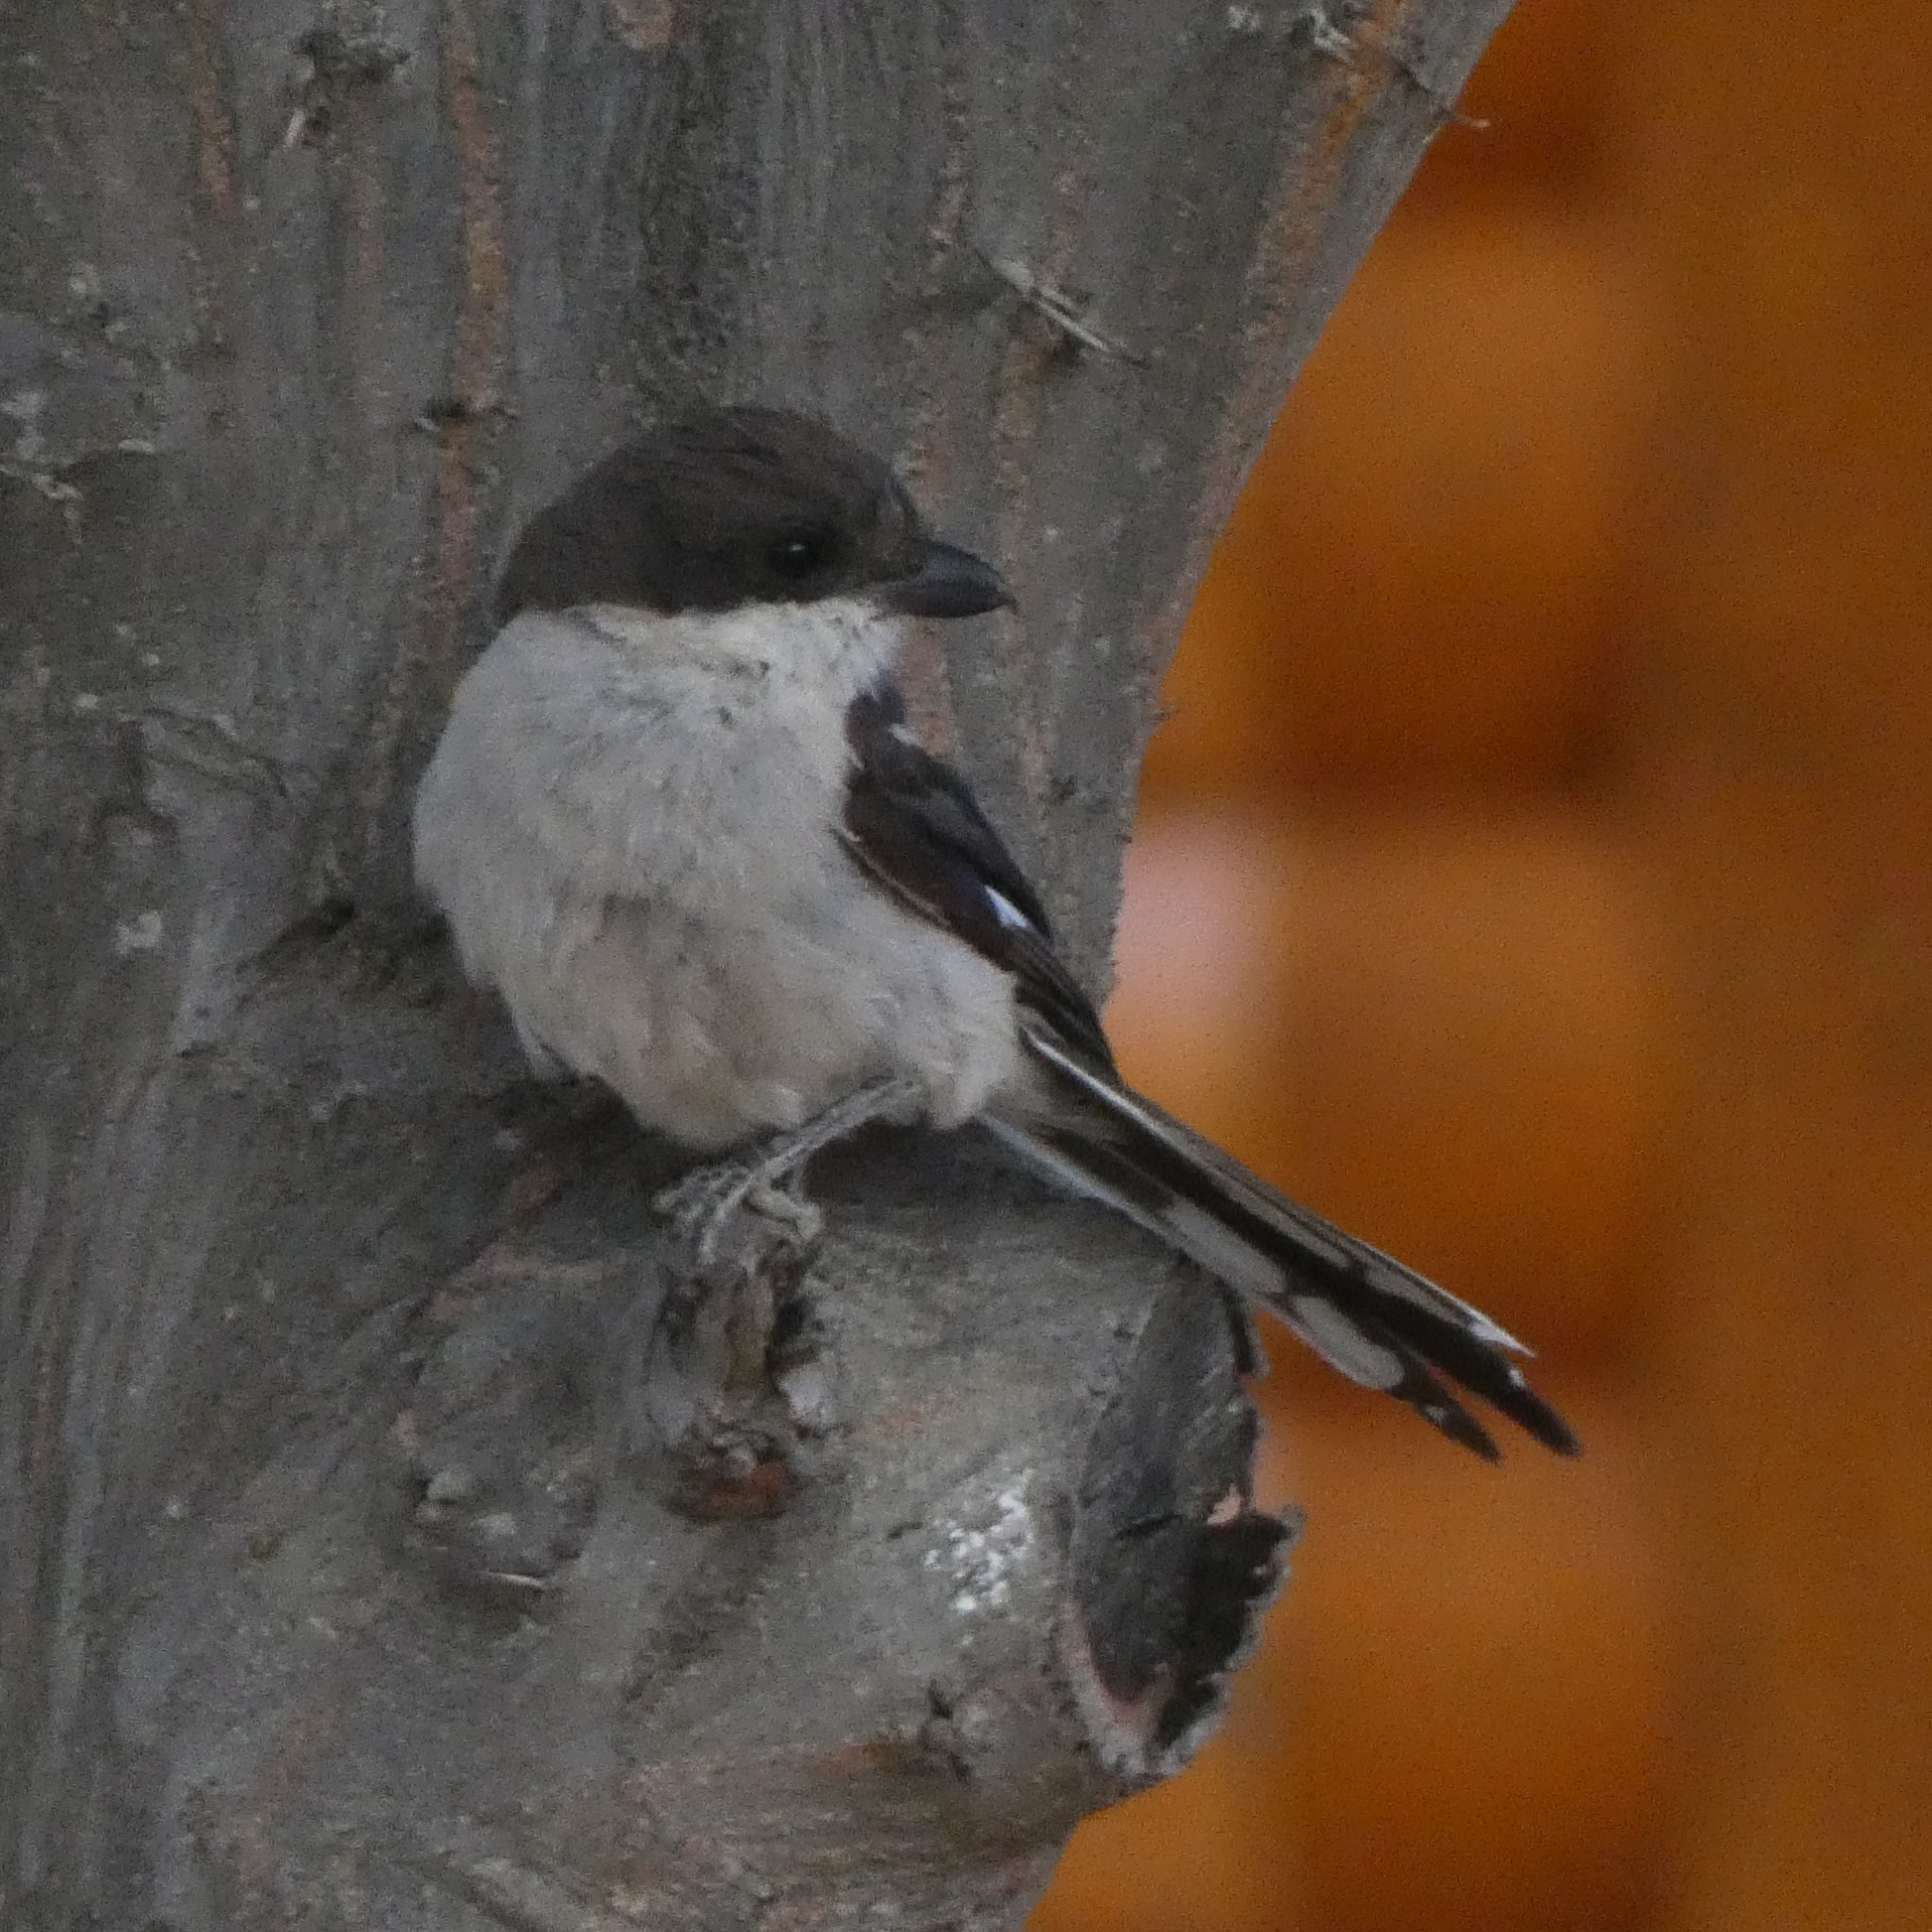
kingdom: Animalia
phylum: Chordata
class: Aves
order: Passeriformes
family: Laniidae
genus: Lanius
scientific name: Lanius collaris
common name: Southern fiscal
